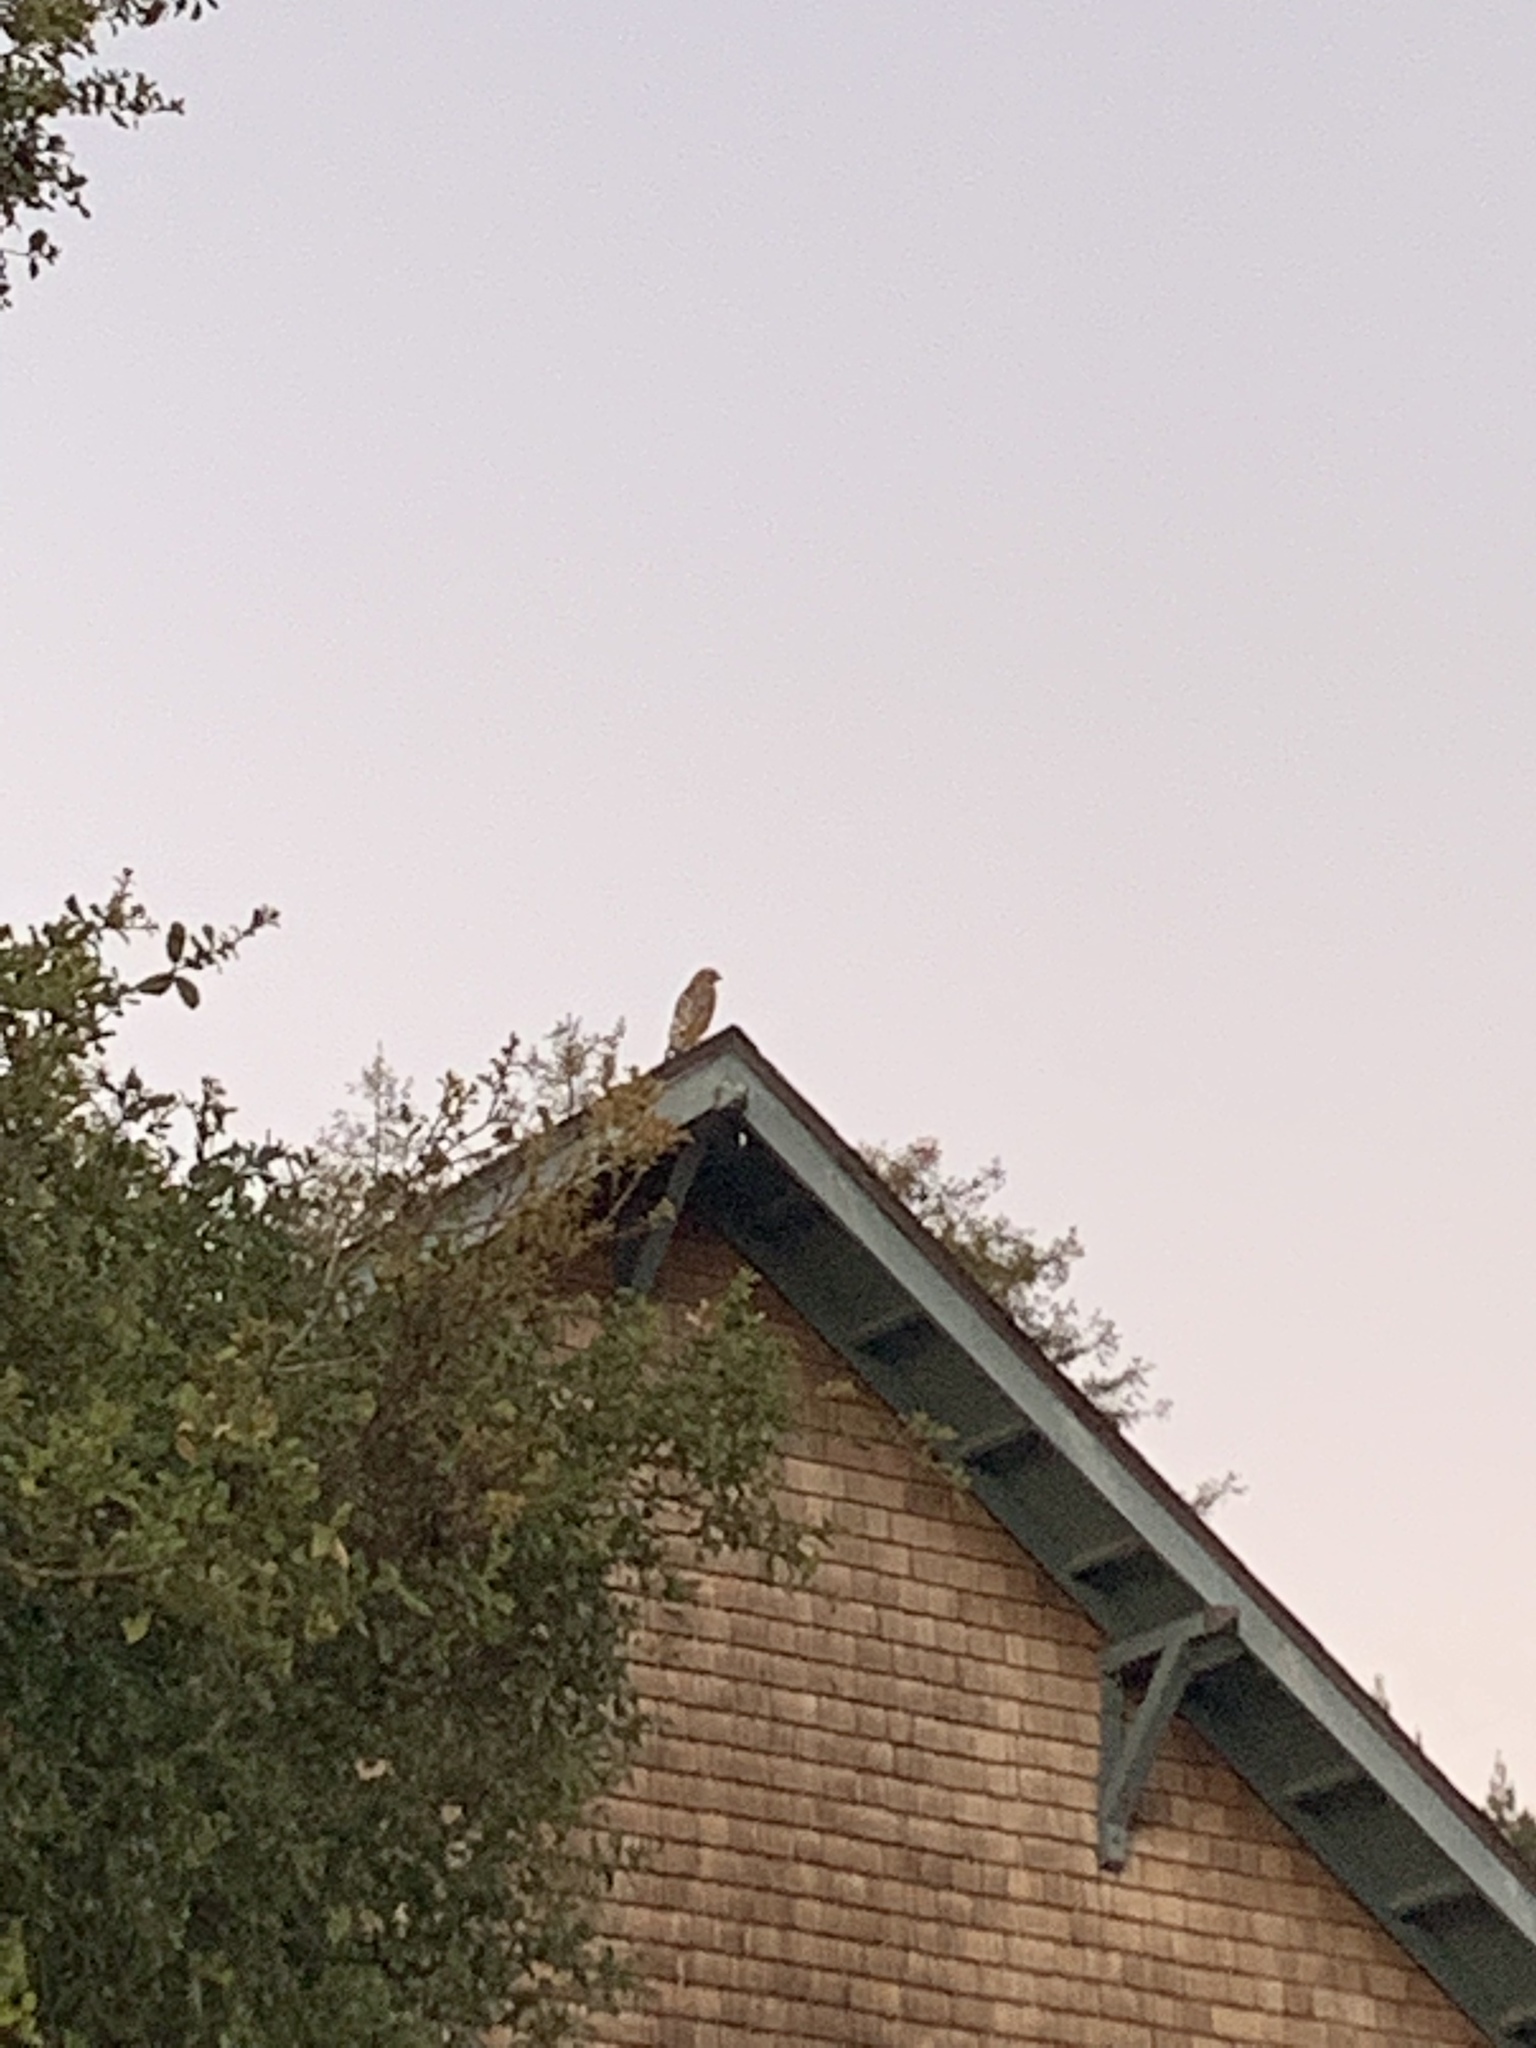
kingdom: Animalia
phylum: Chordata
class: Aves
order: Accipitriformes
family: Accipitridae
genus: Buteo
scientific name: Buteo lineatus
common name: Red-shouldered hawk
